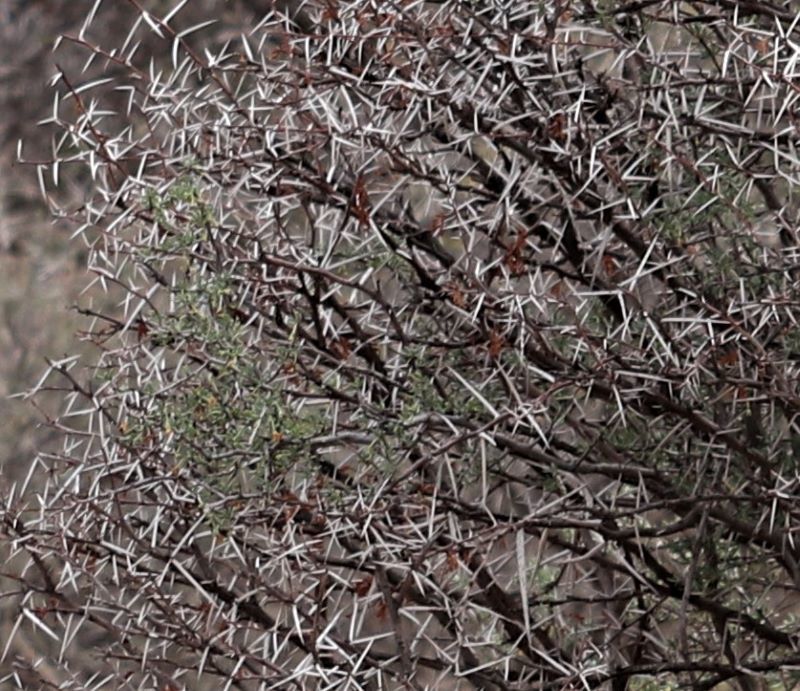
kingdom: Plantae
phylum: Tracheophyta
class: Magnoliopsida
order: Fabales
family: Fabaceae
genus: Vachellia
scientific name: Vachellia karroo
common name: Sweet thorn
